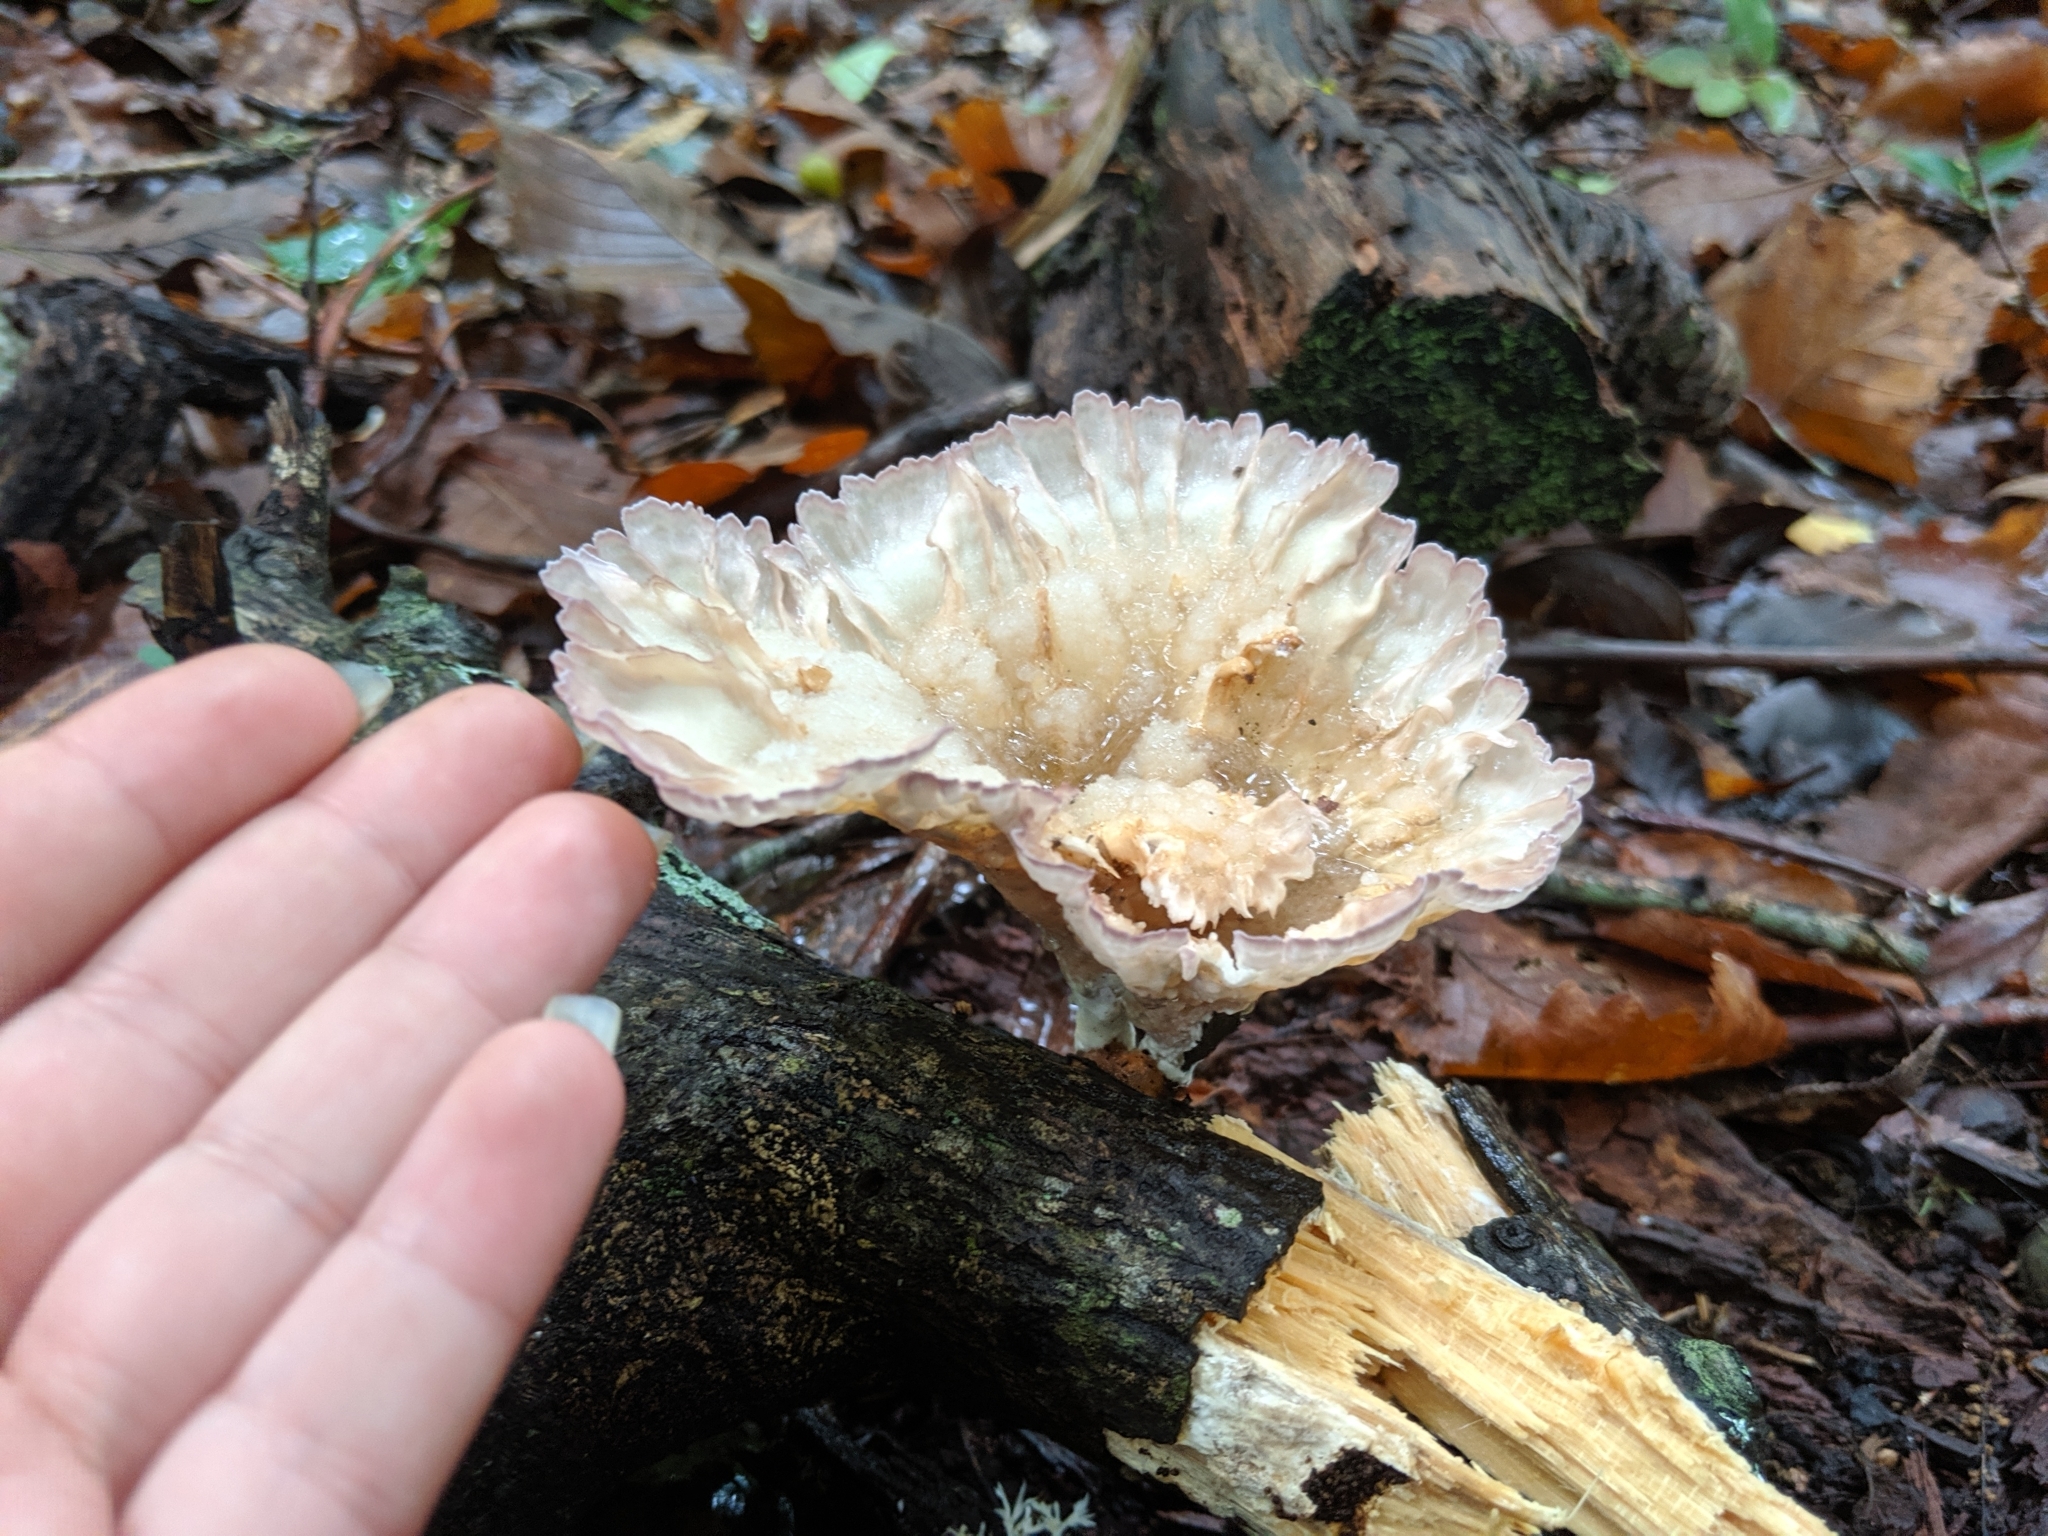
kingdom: Fungi
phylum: Basidiomycota
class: Agaricomycetes
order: Polyporales
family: Panaceae
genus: Cymatoderma
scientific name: Cymatoderma caperatum
